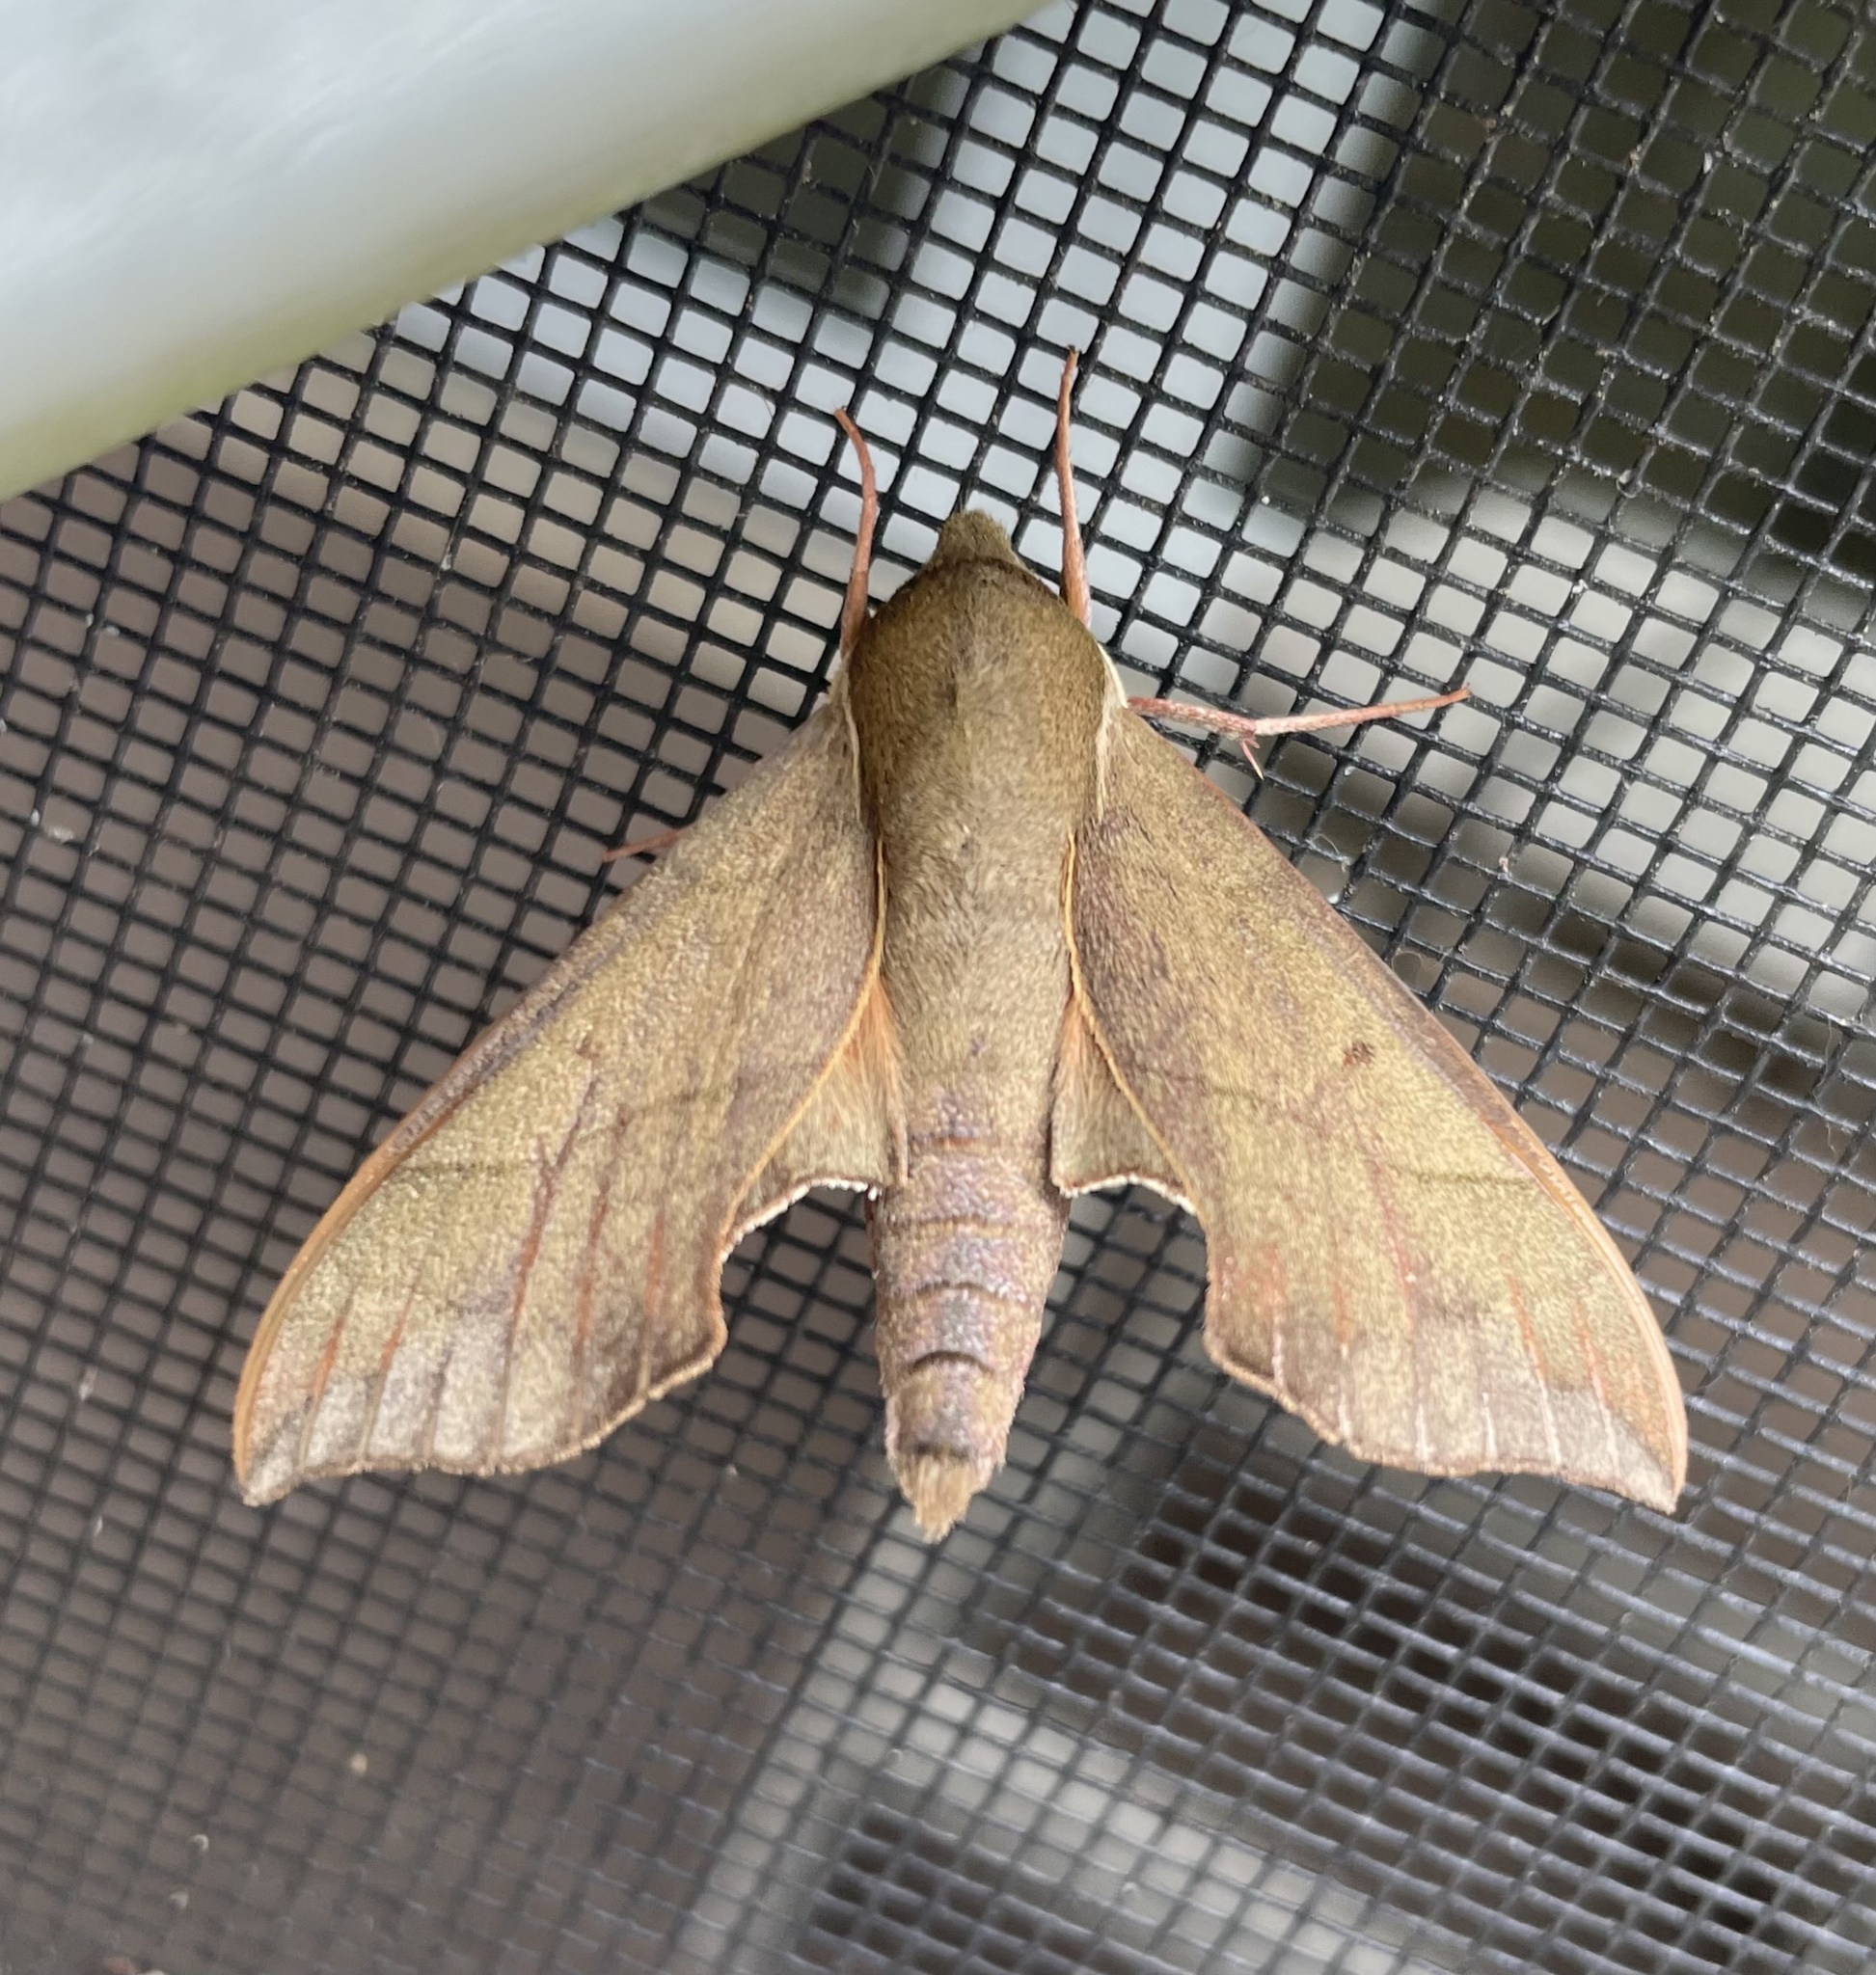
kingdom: Animalia
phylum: Arthropoda
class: Insecta
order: Lepidoptera
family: Sphingidae
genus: Darapsa
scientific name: Darapsa myron
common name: Hog sphinx
